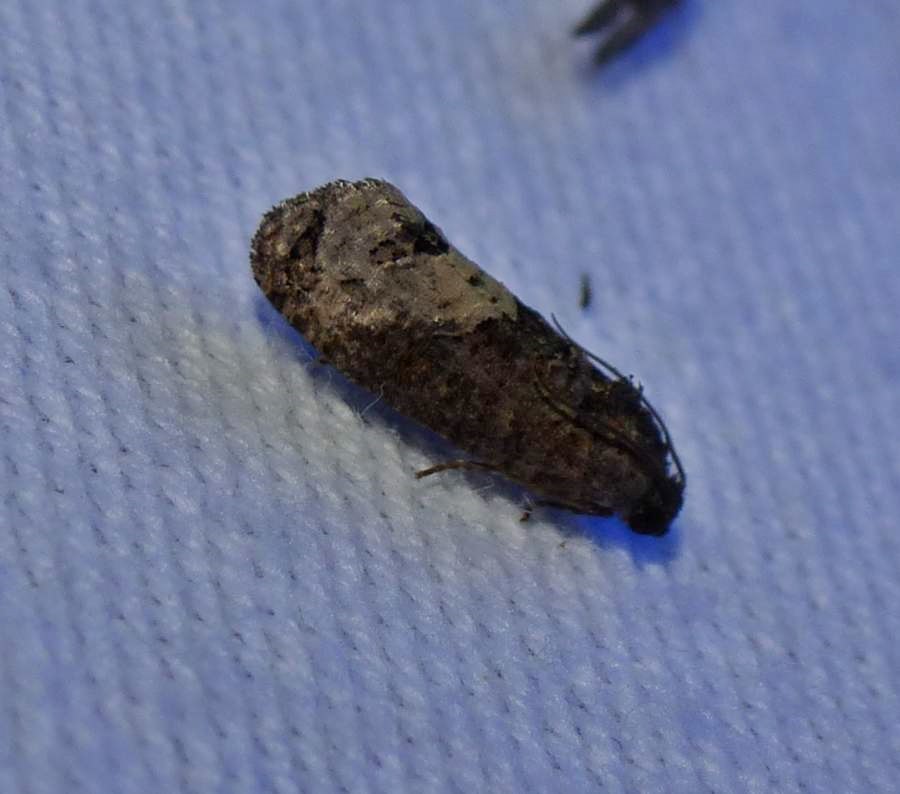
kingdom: Animalia
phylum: Arthropoda
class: Insecta
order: Lepidoptera
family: Tortricidae
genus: Ecdytolopha
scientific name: Ecdytolopha insiticiana
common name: Locust twig borer moth
